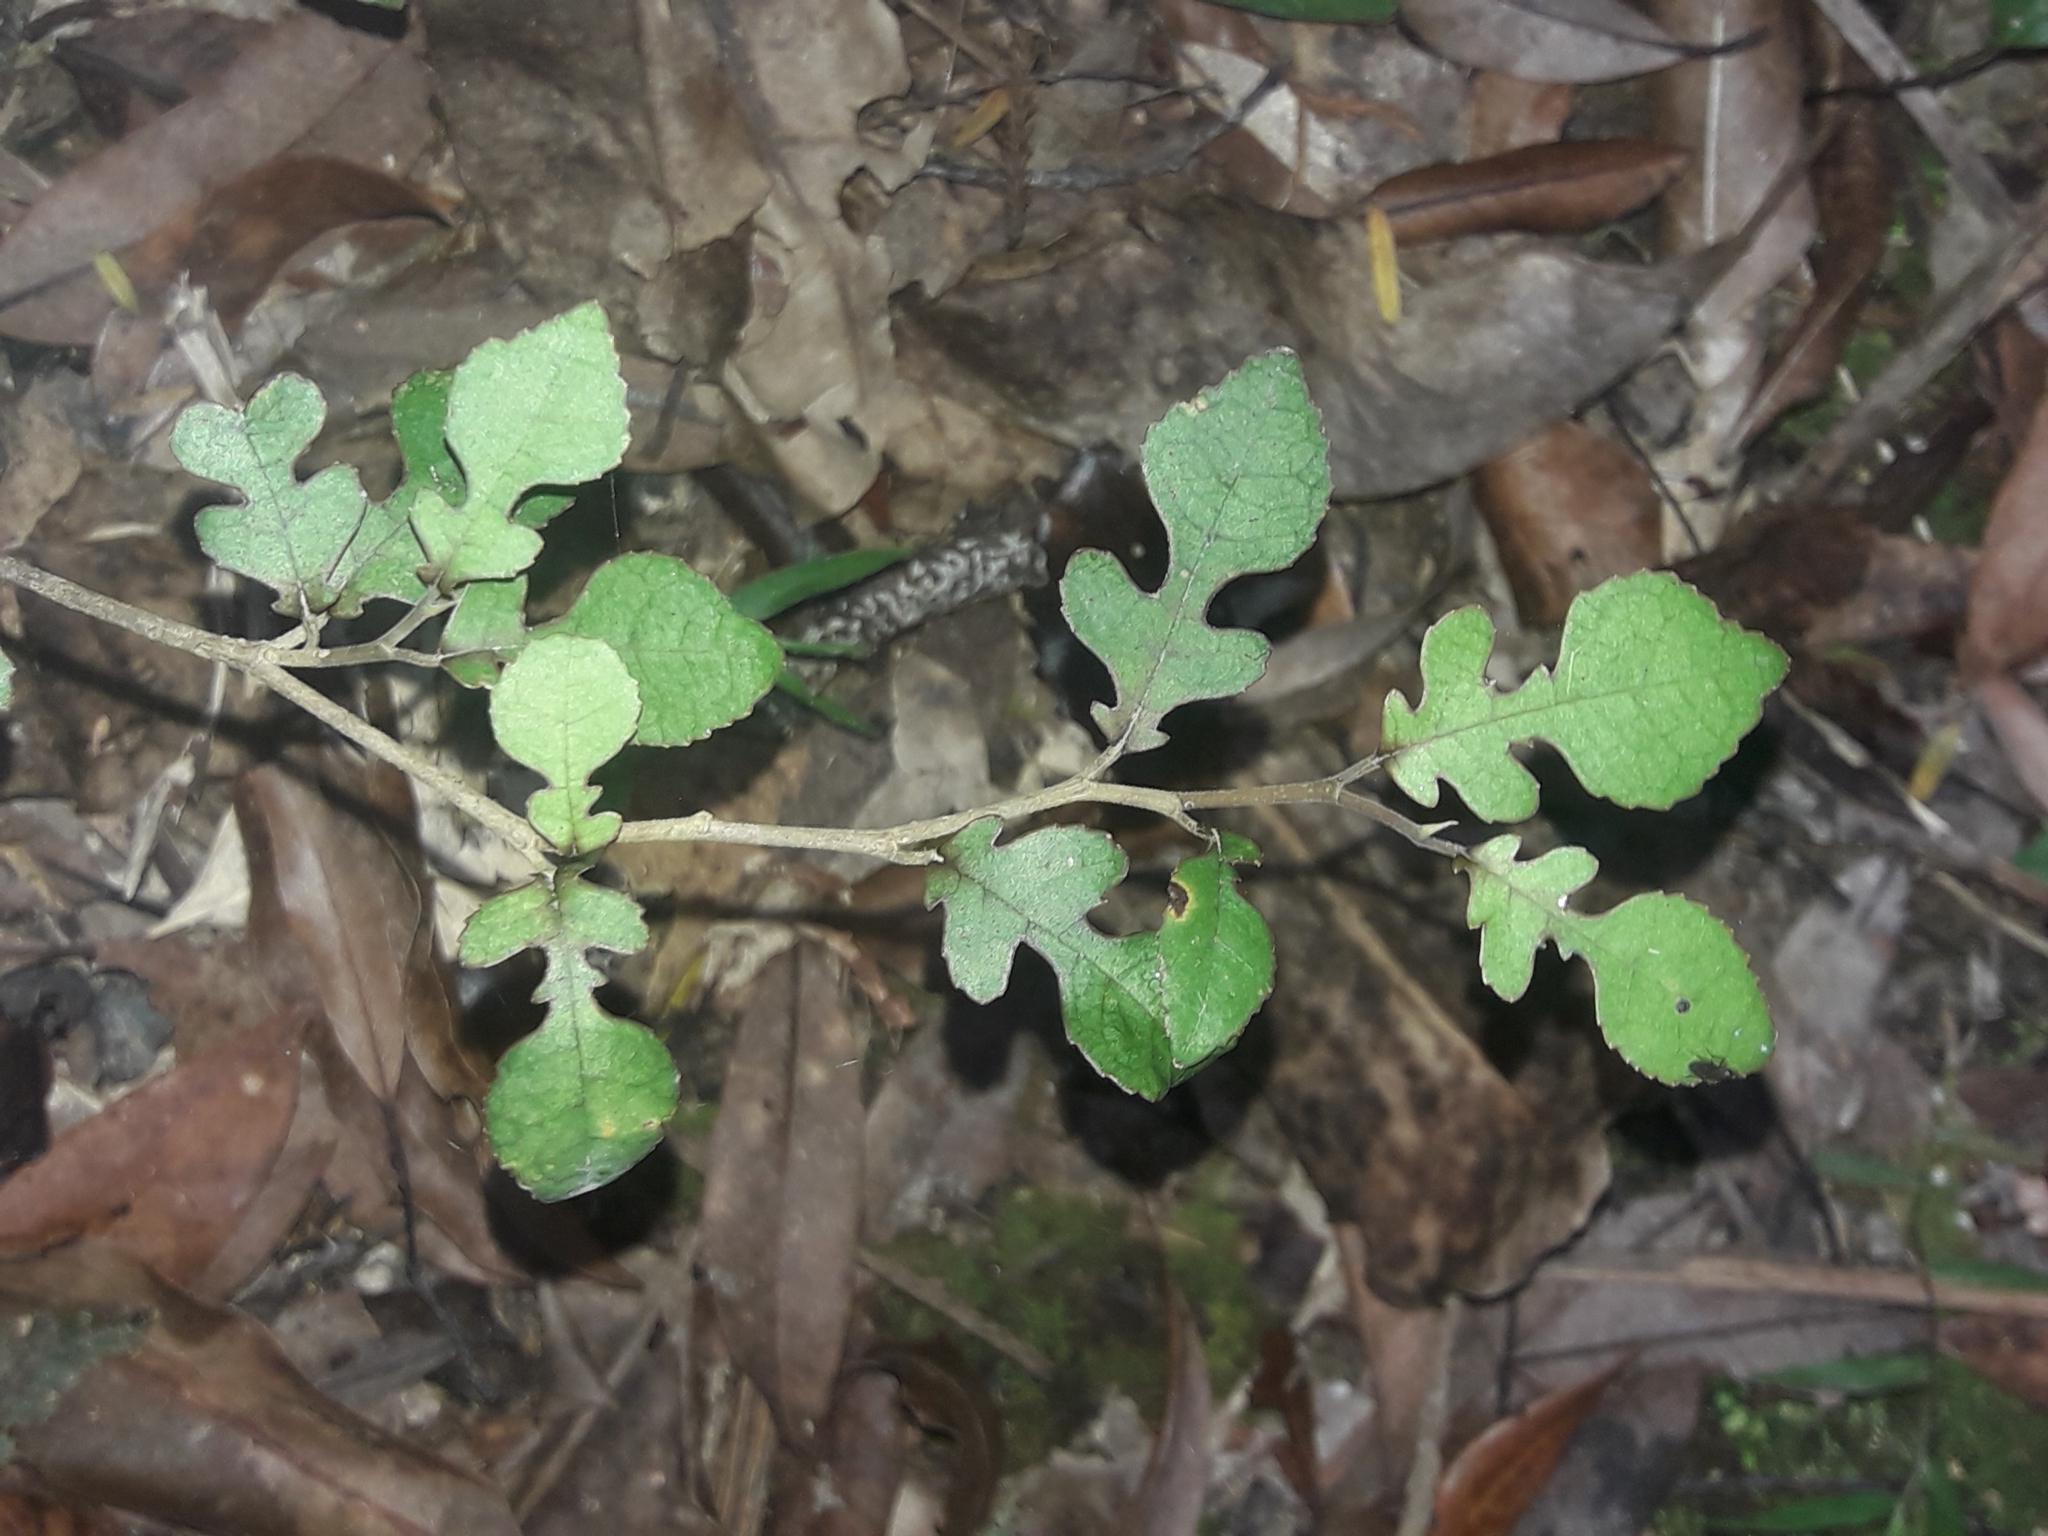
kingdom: Plantae
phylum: Tracheophyta
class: Magnoliopsida
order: Rosales
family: Moraceae
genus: Paratrophis
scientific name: Paratrophis microphylla
